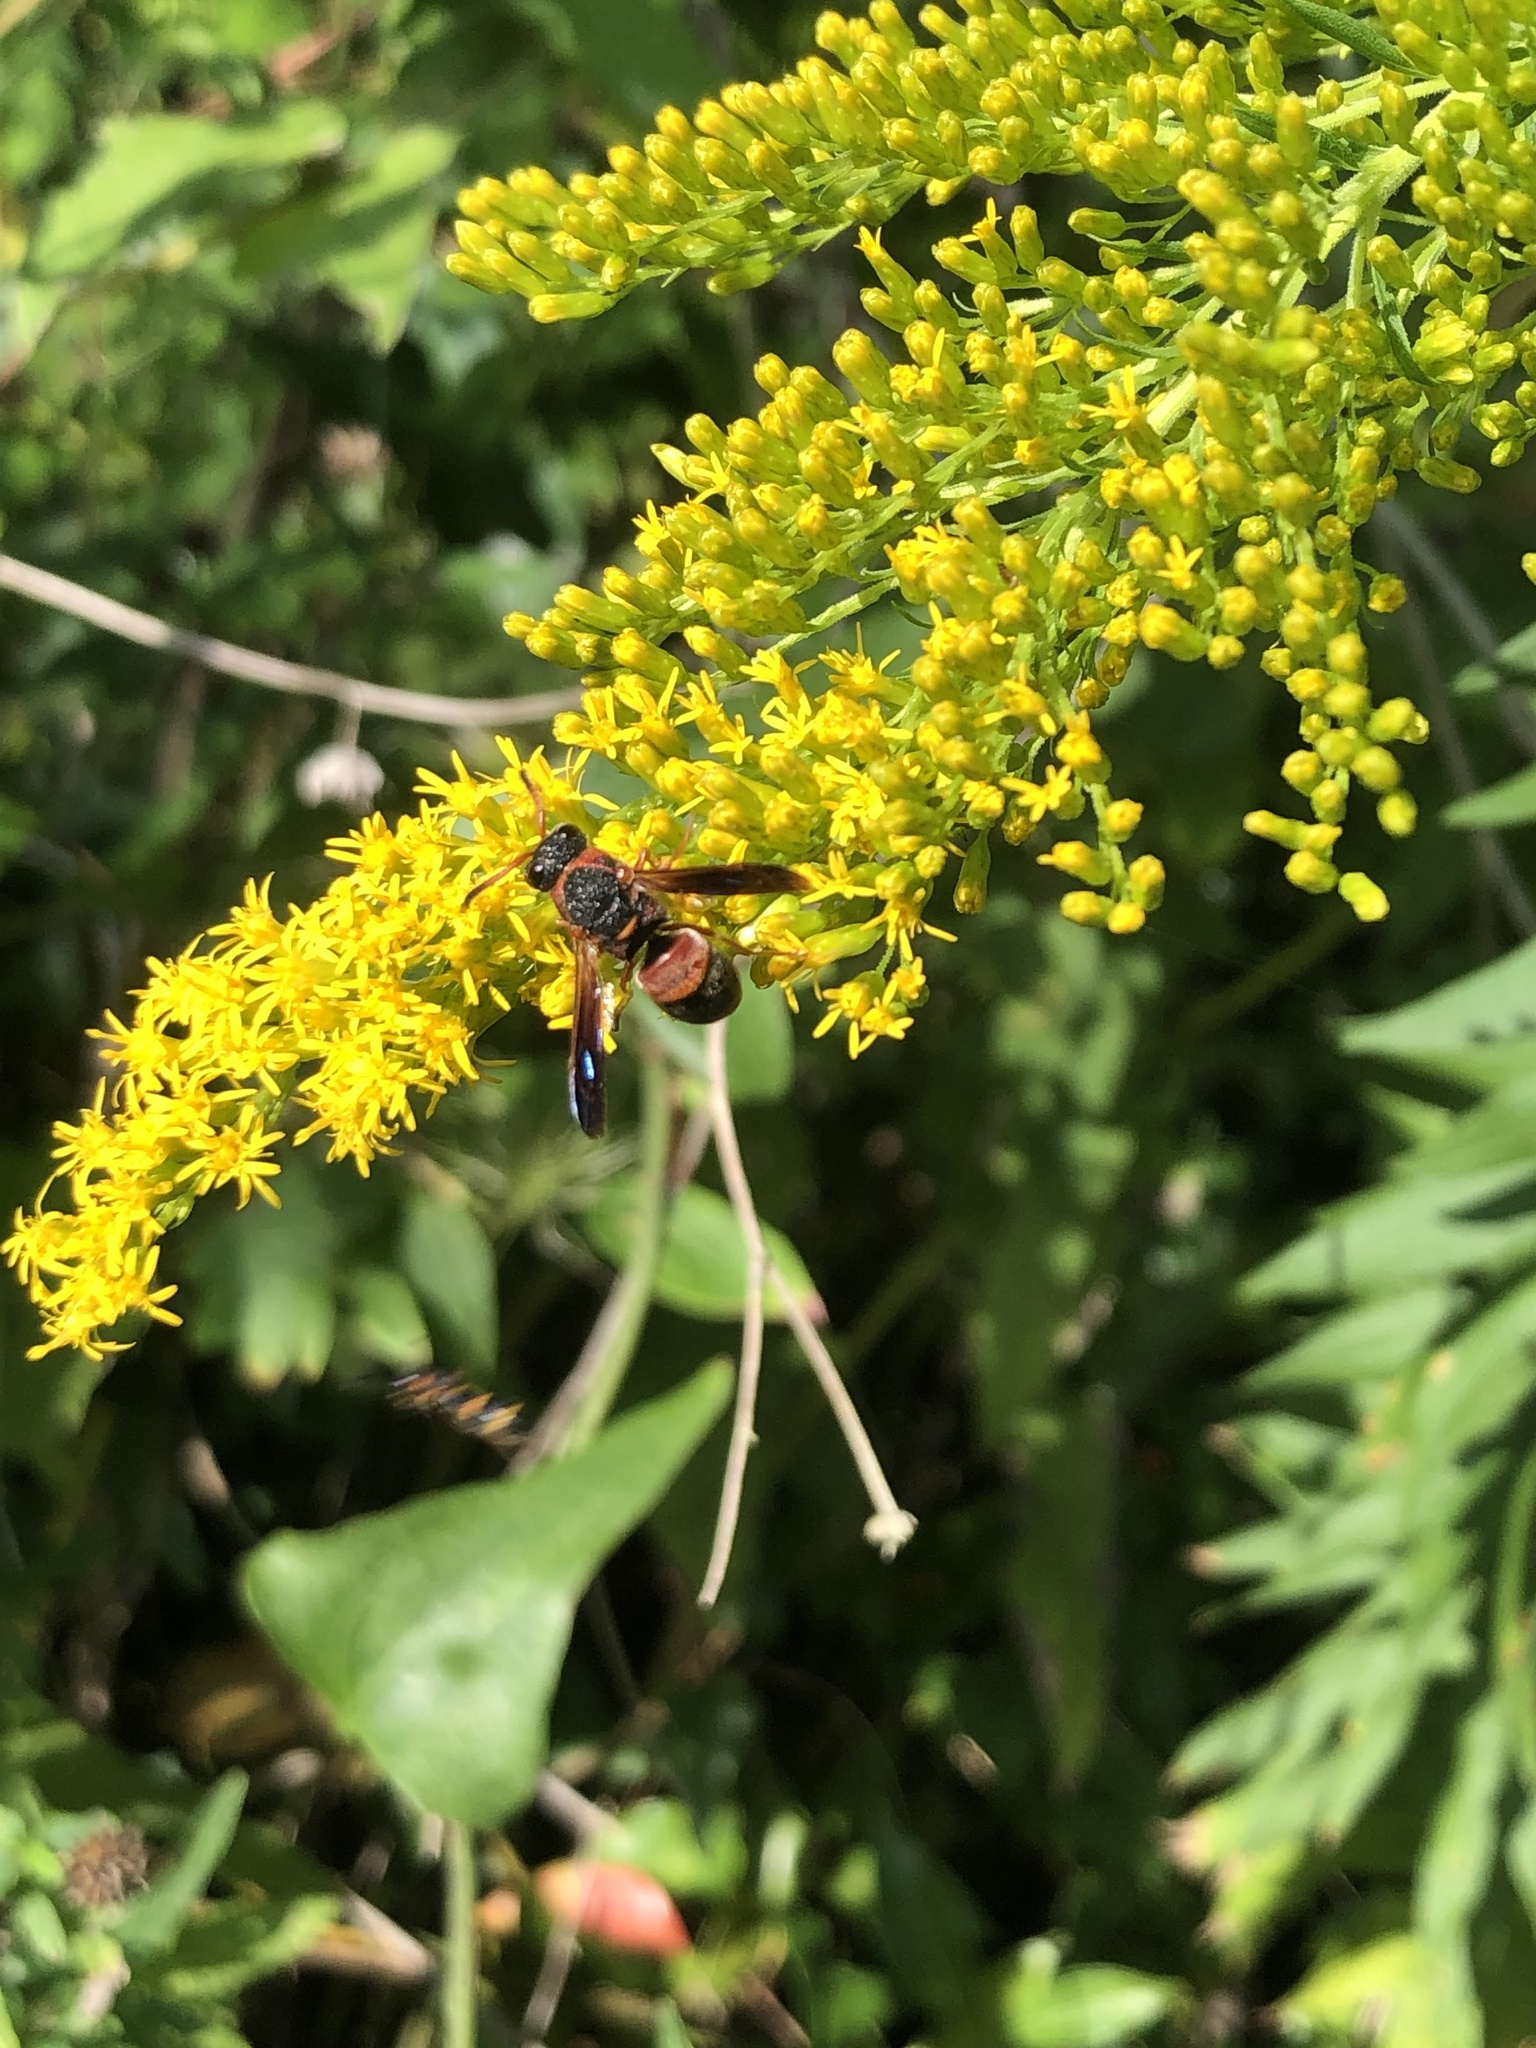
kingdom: Animalia
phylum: Arthropoda
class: Insecta
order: Hymenoptera
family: Eumenidae
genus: Pachodynerus
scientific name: Pachodynerus erynnis
